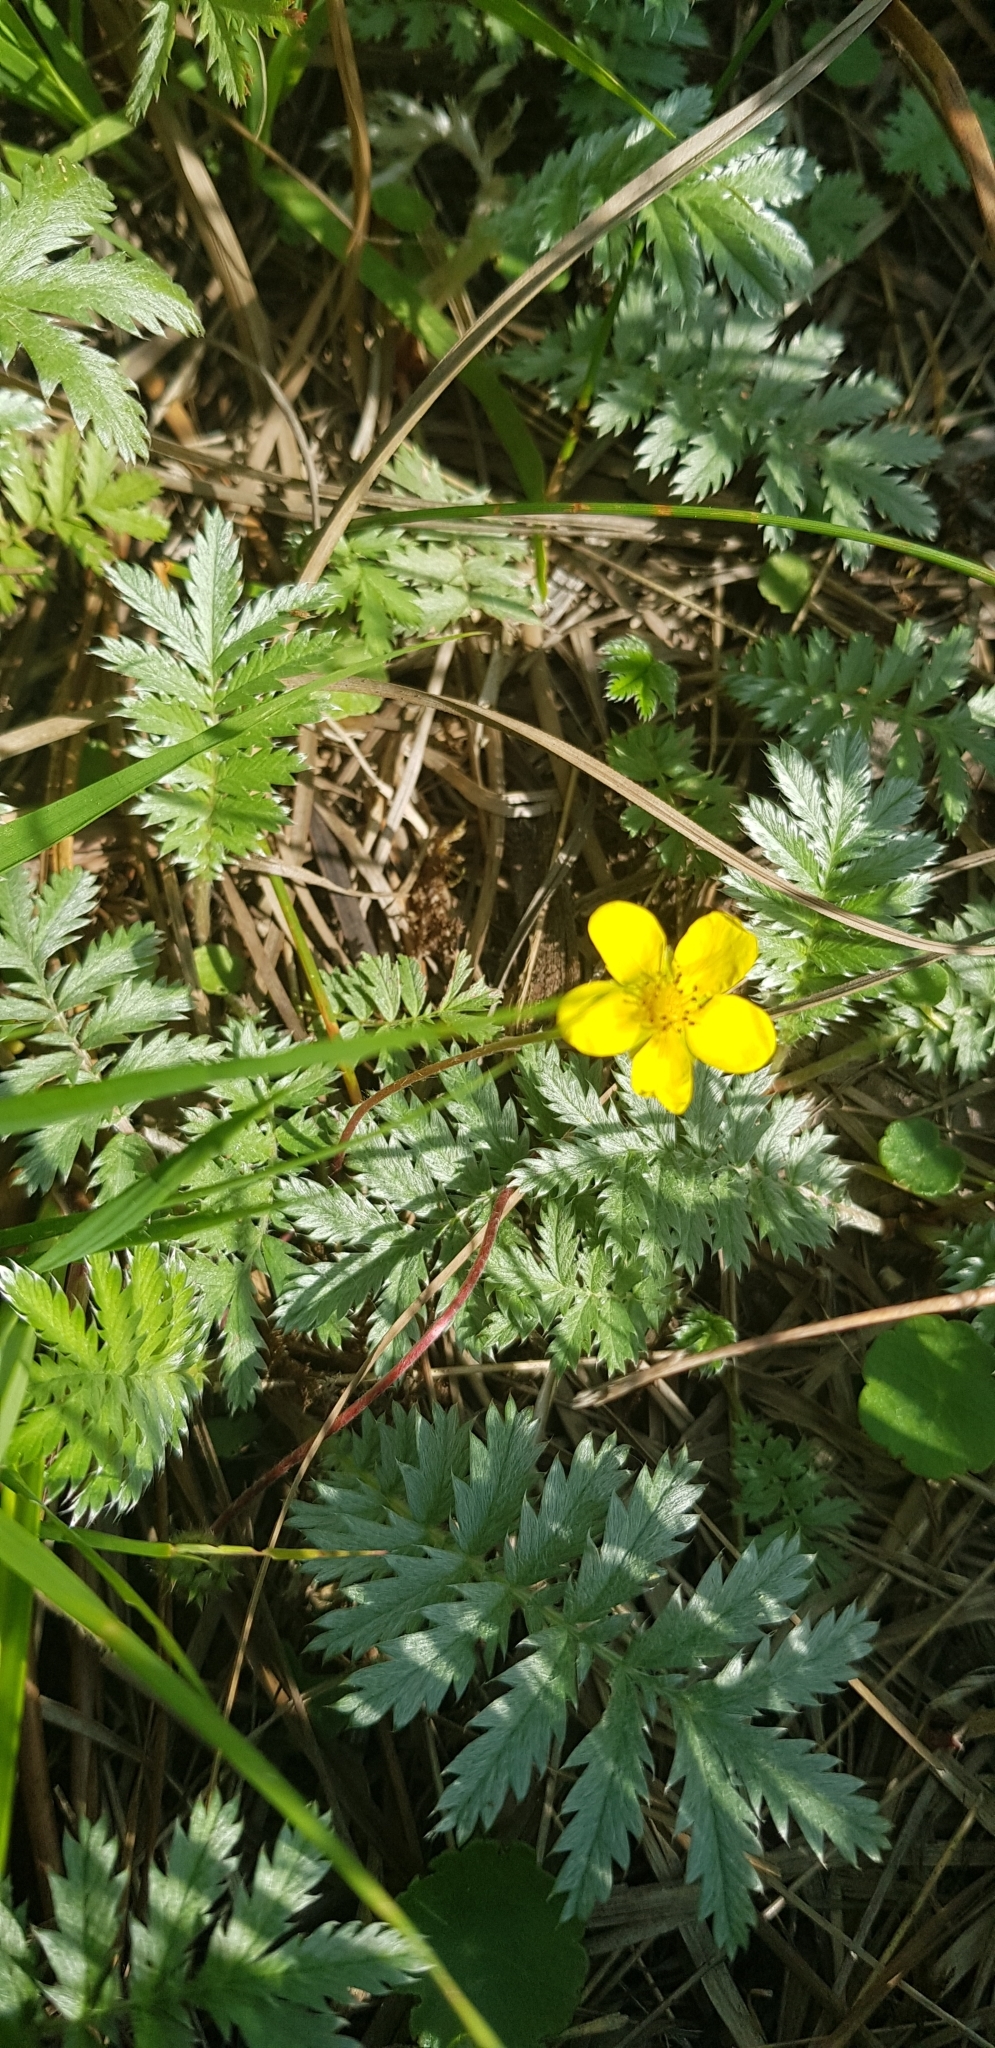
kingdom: Plantae
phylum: Tracheophyta
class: Magnoliopsida
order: Rosales
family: Rosaceae
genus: Argentina
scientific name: Argentina anserina
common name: Common silverweed
